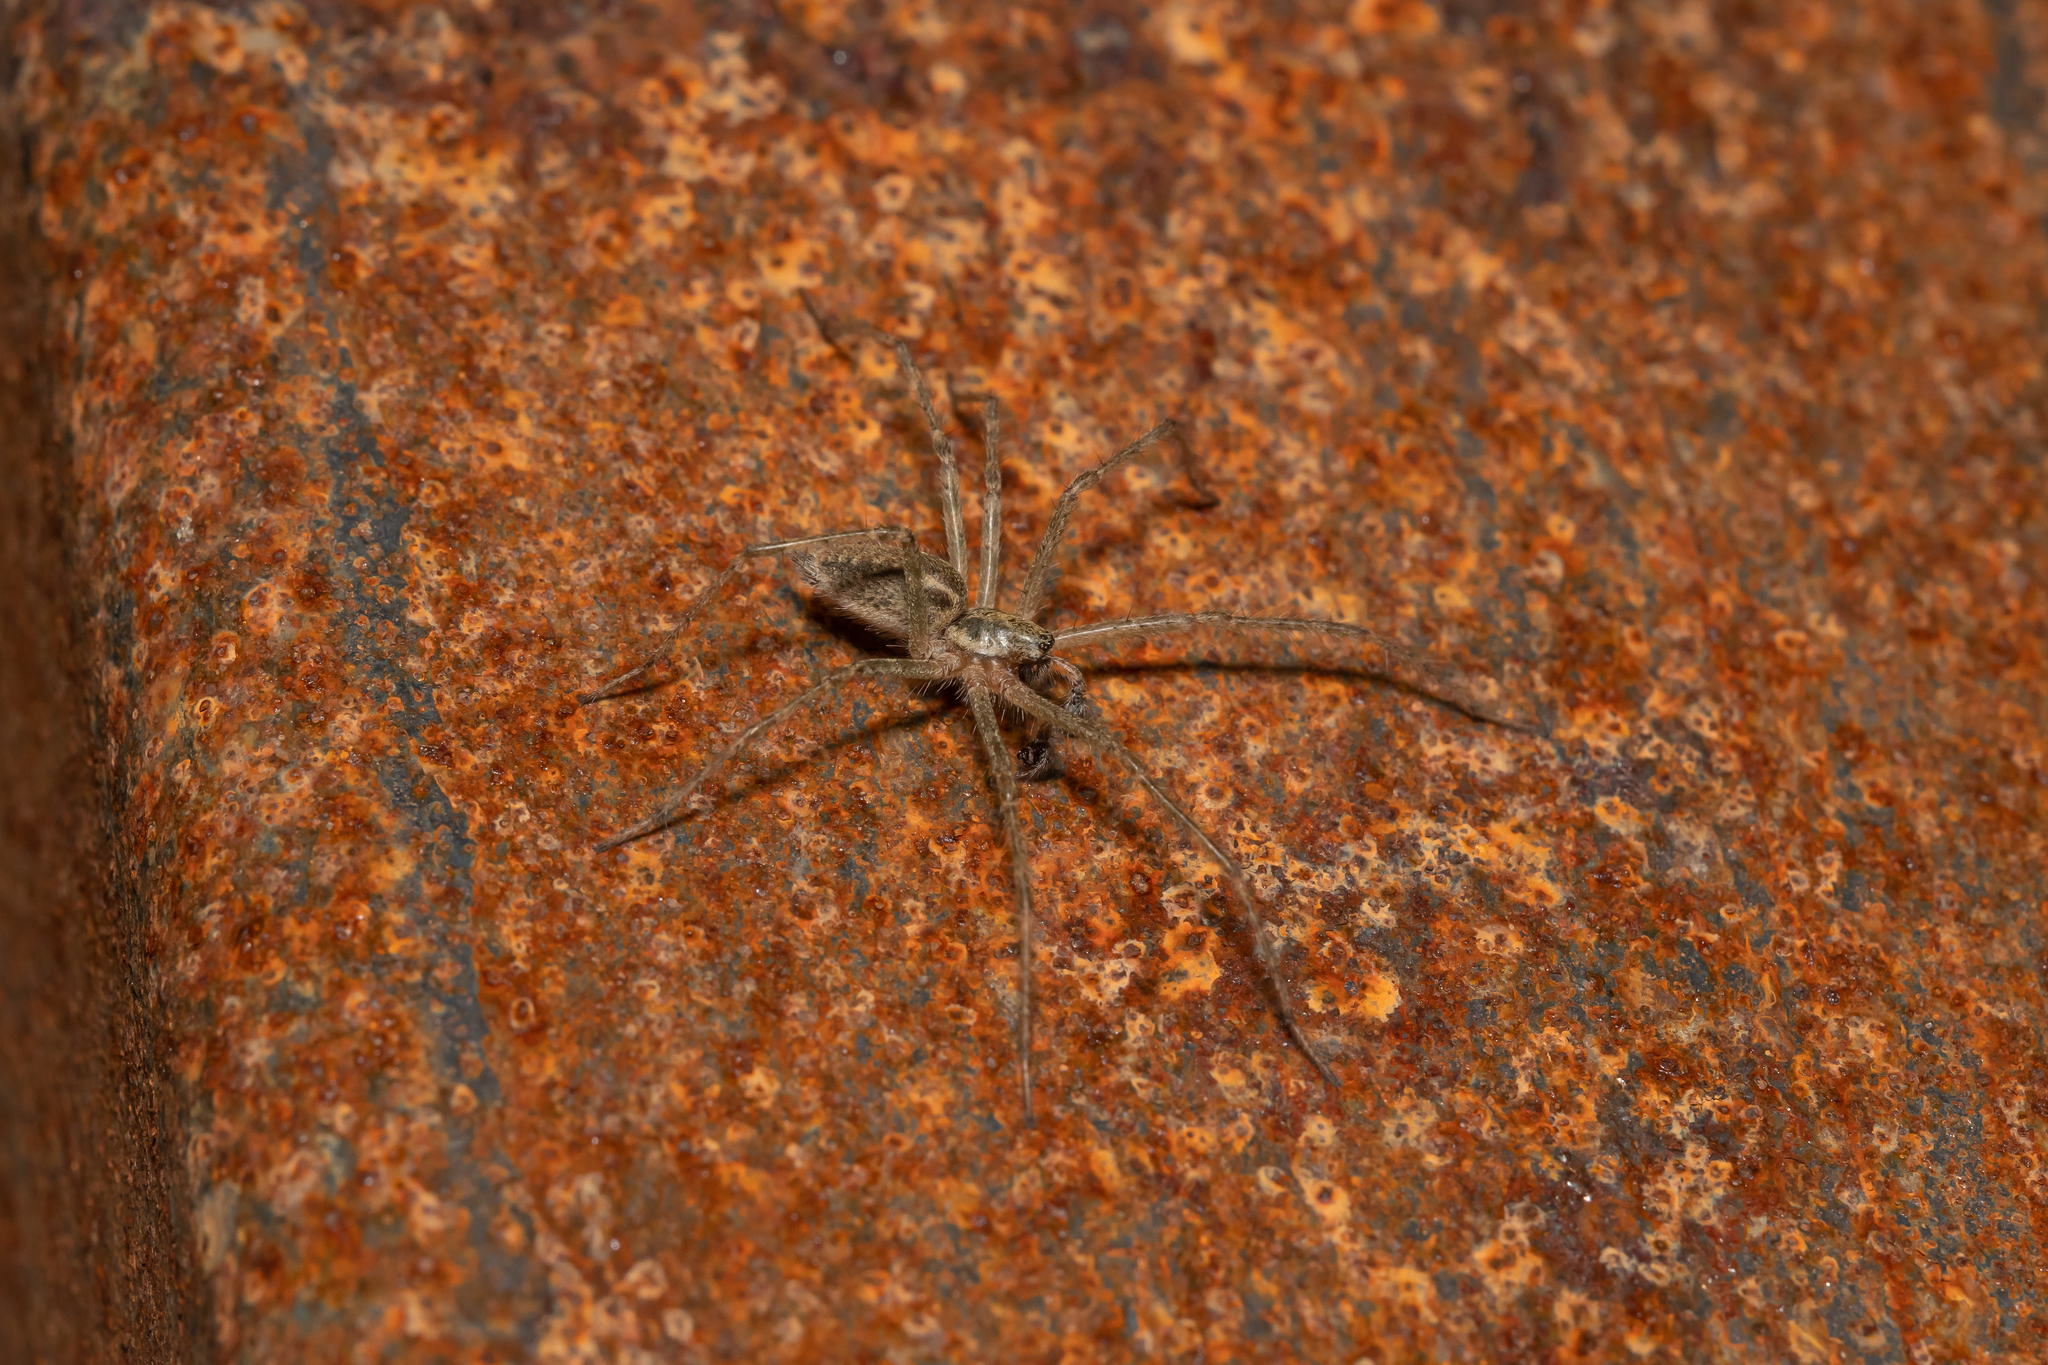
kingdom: Animalia
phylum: Arthropoda
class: Arachnida
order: Araneae
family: Agelenidae
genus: Allagelena
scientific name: Allagelena gracilens
